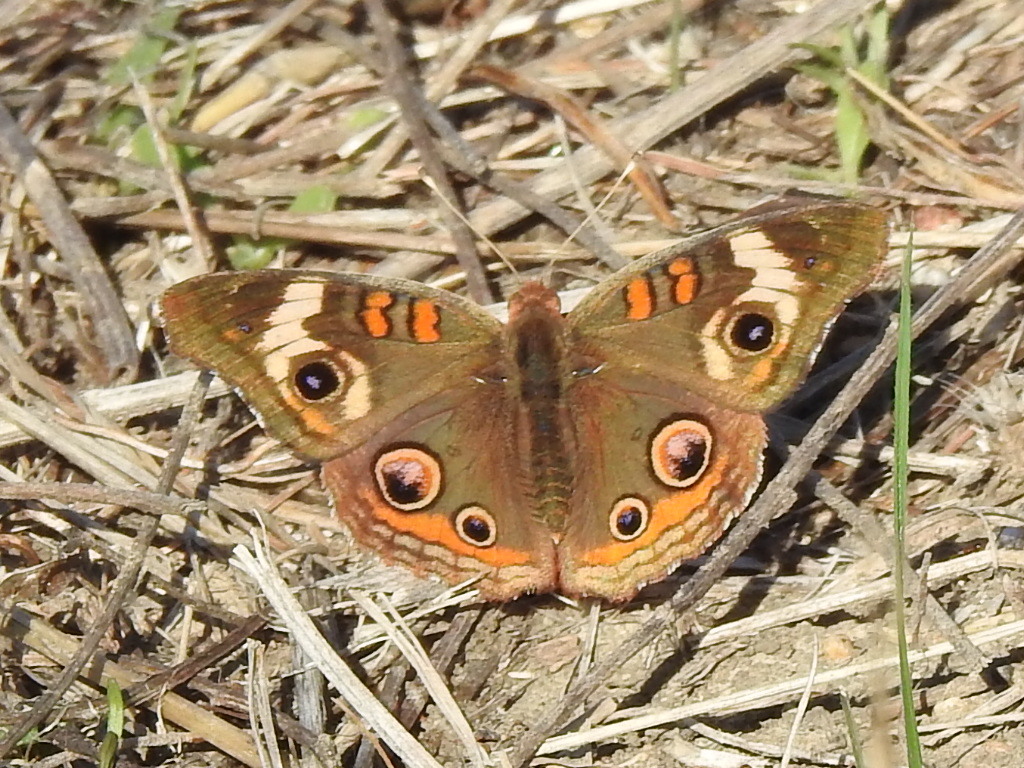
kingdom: Animalia
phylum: Arthropoda
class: Insecta
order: Lepidoptera
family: Nymphalidae
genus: Junonia
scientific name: Junonia coenia
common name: Common buckeye
